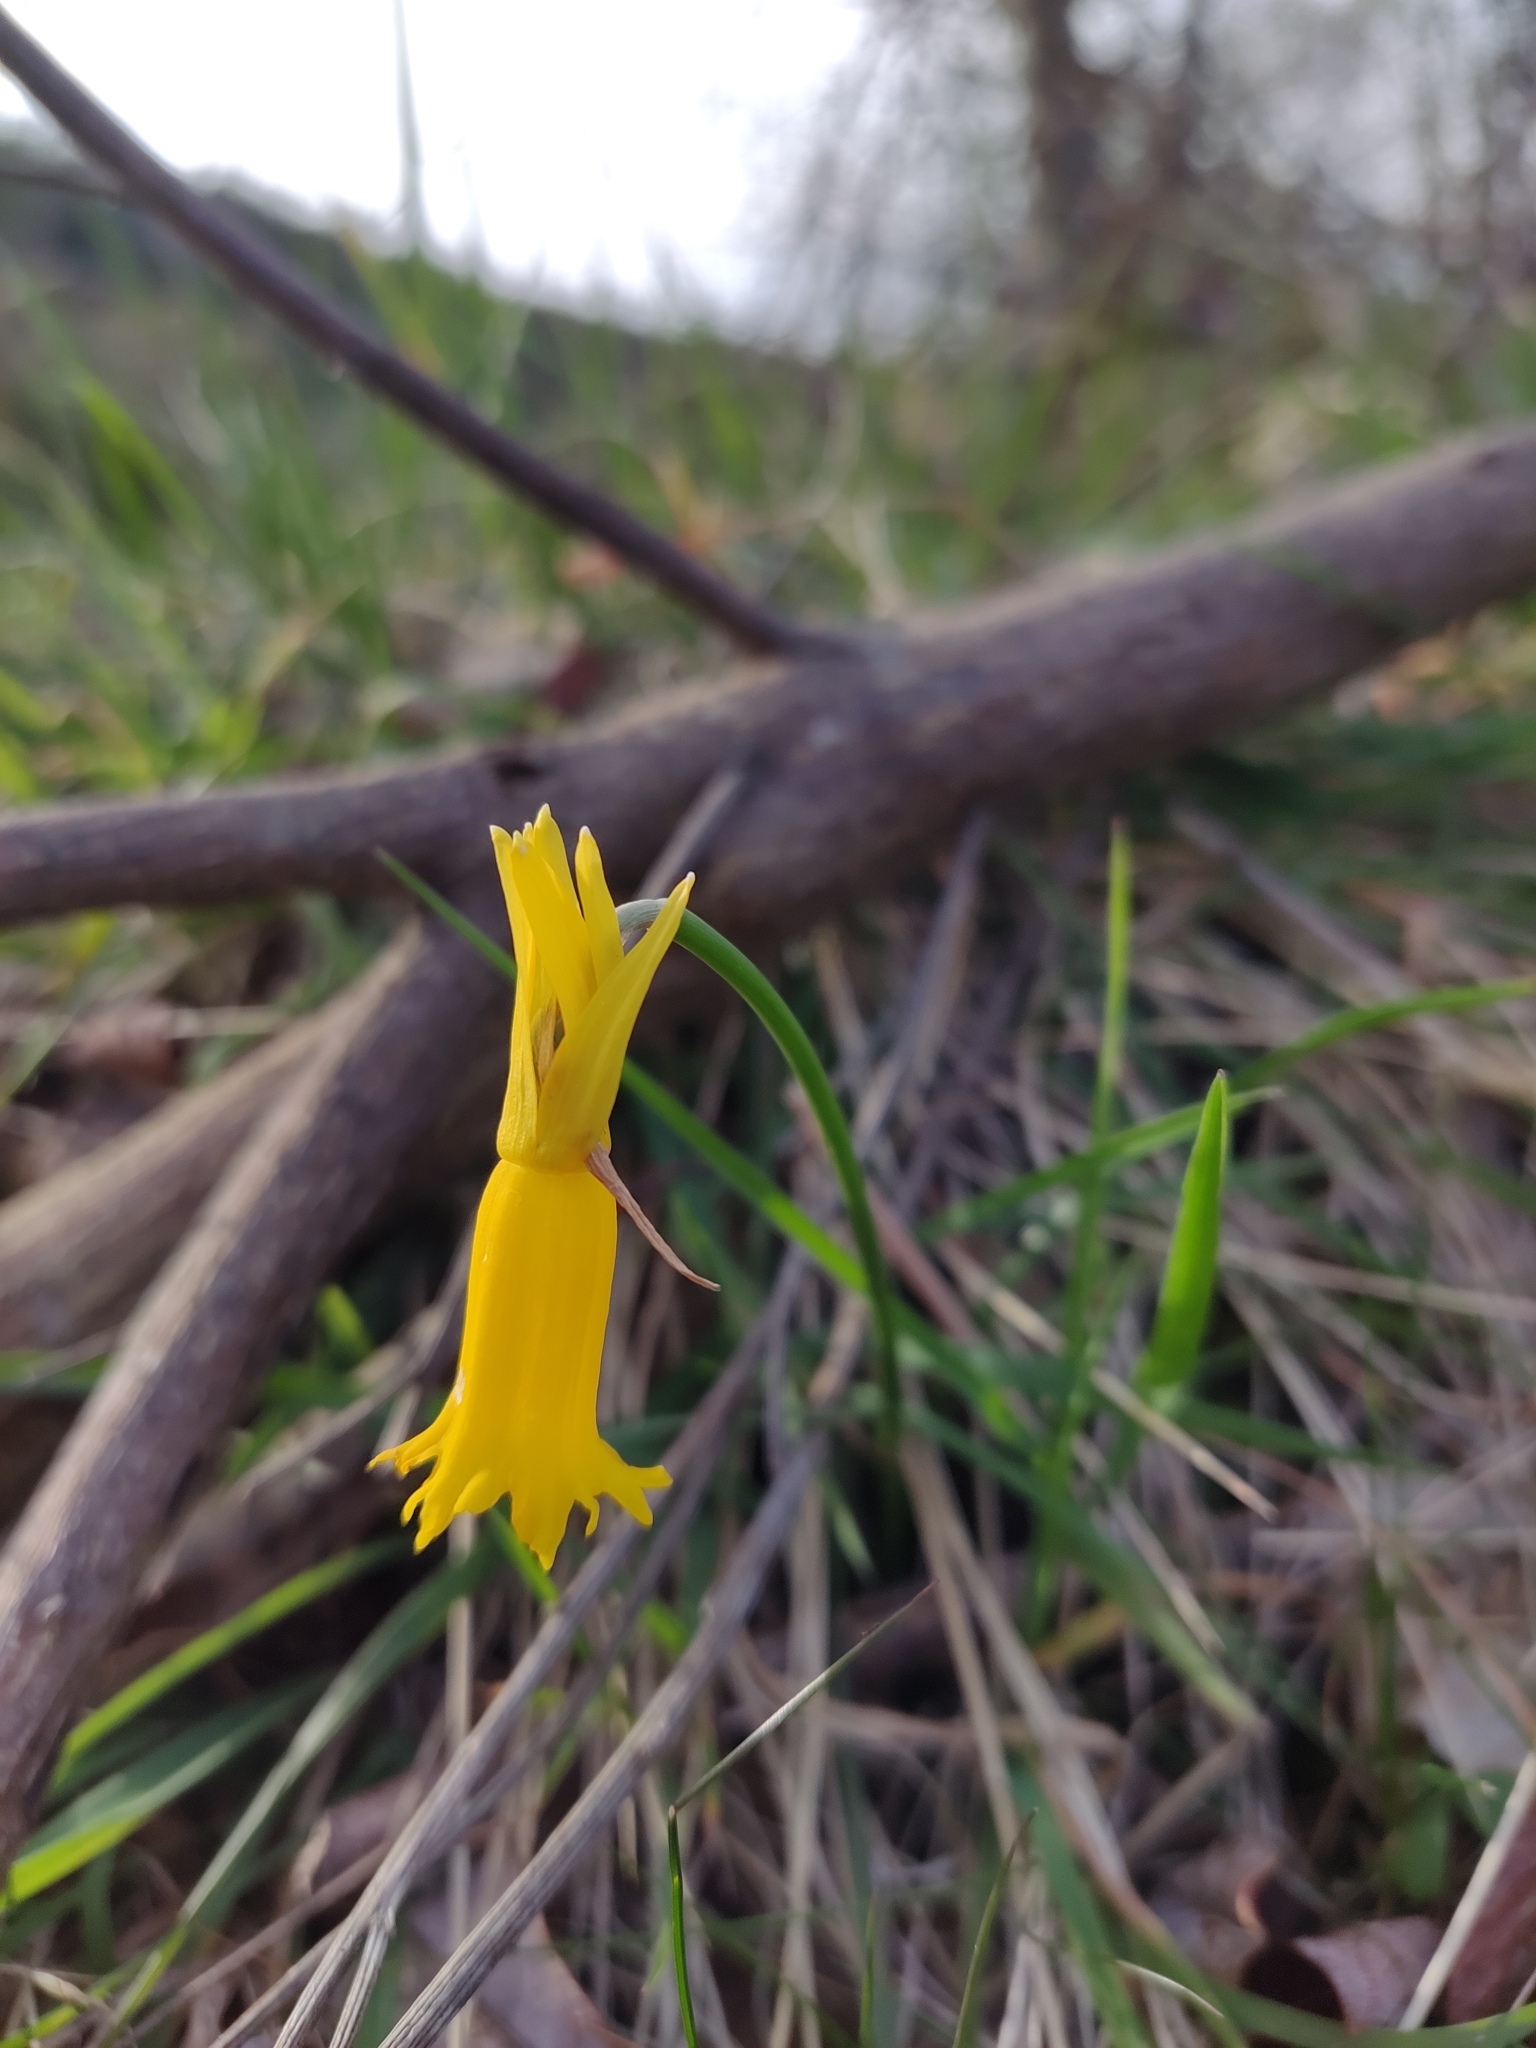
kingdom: Plantae
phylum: Tracheophyta
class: Liliopsida
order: Asparagales
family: Amaryllidaceae
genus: Narcissus
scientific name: Narcissus cyclamineus
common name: Cyclamen-flowered daffodil
